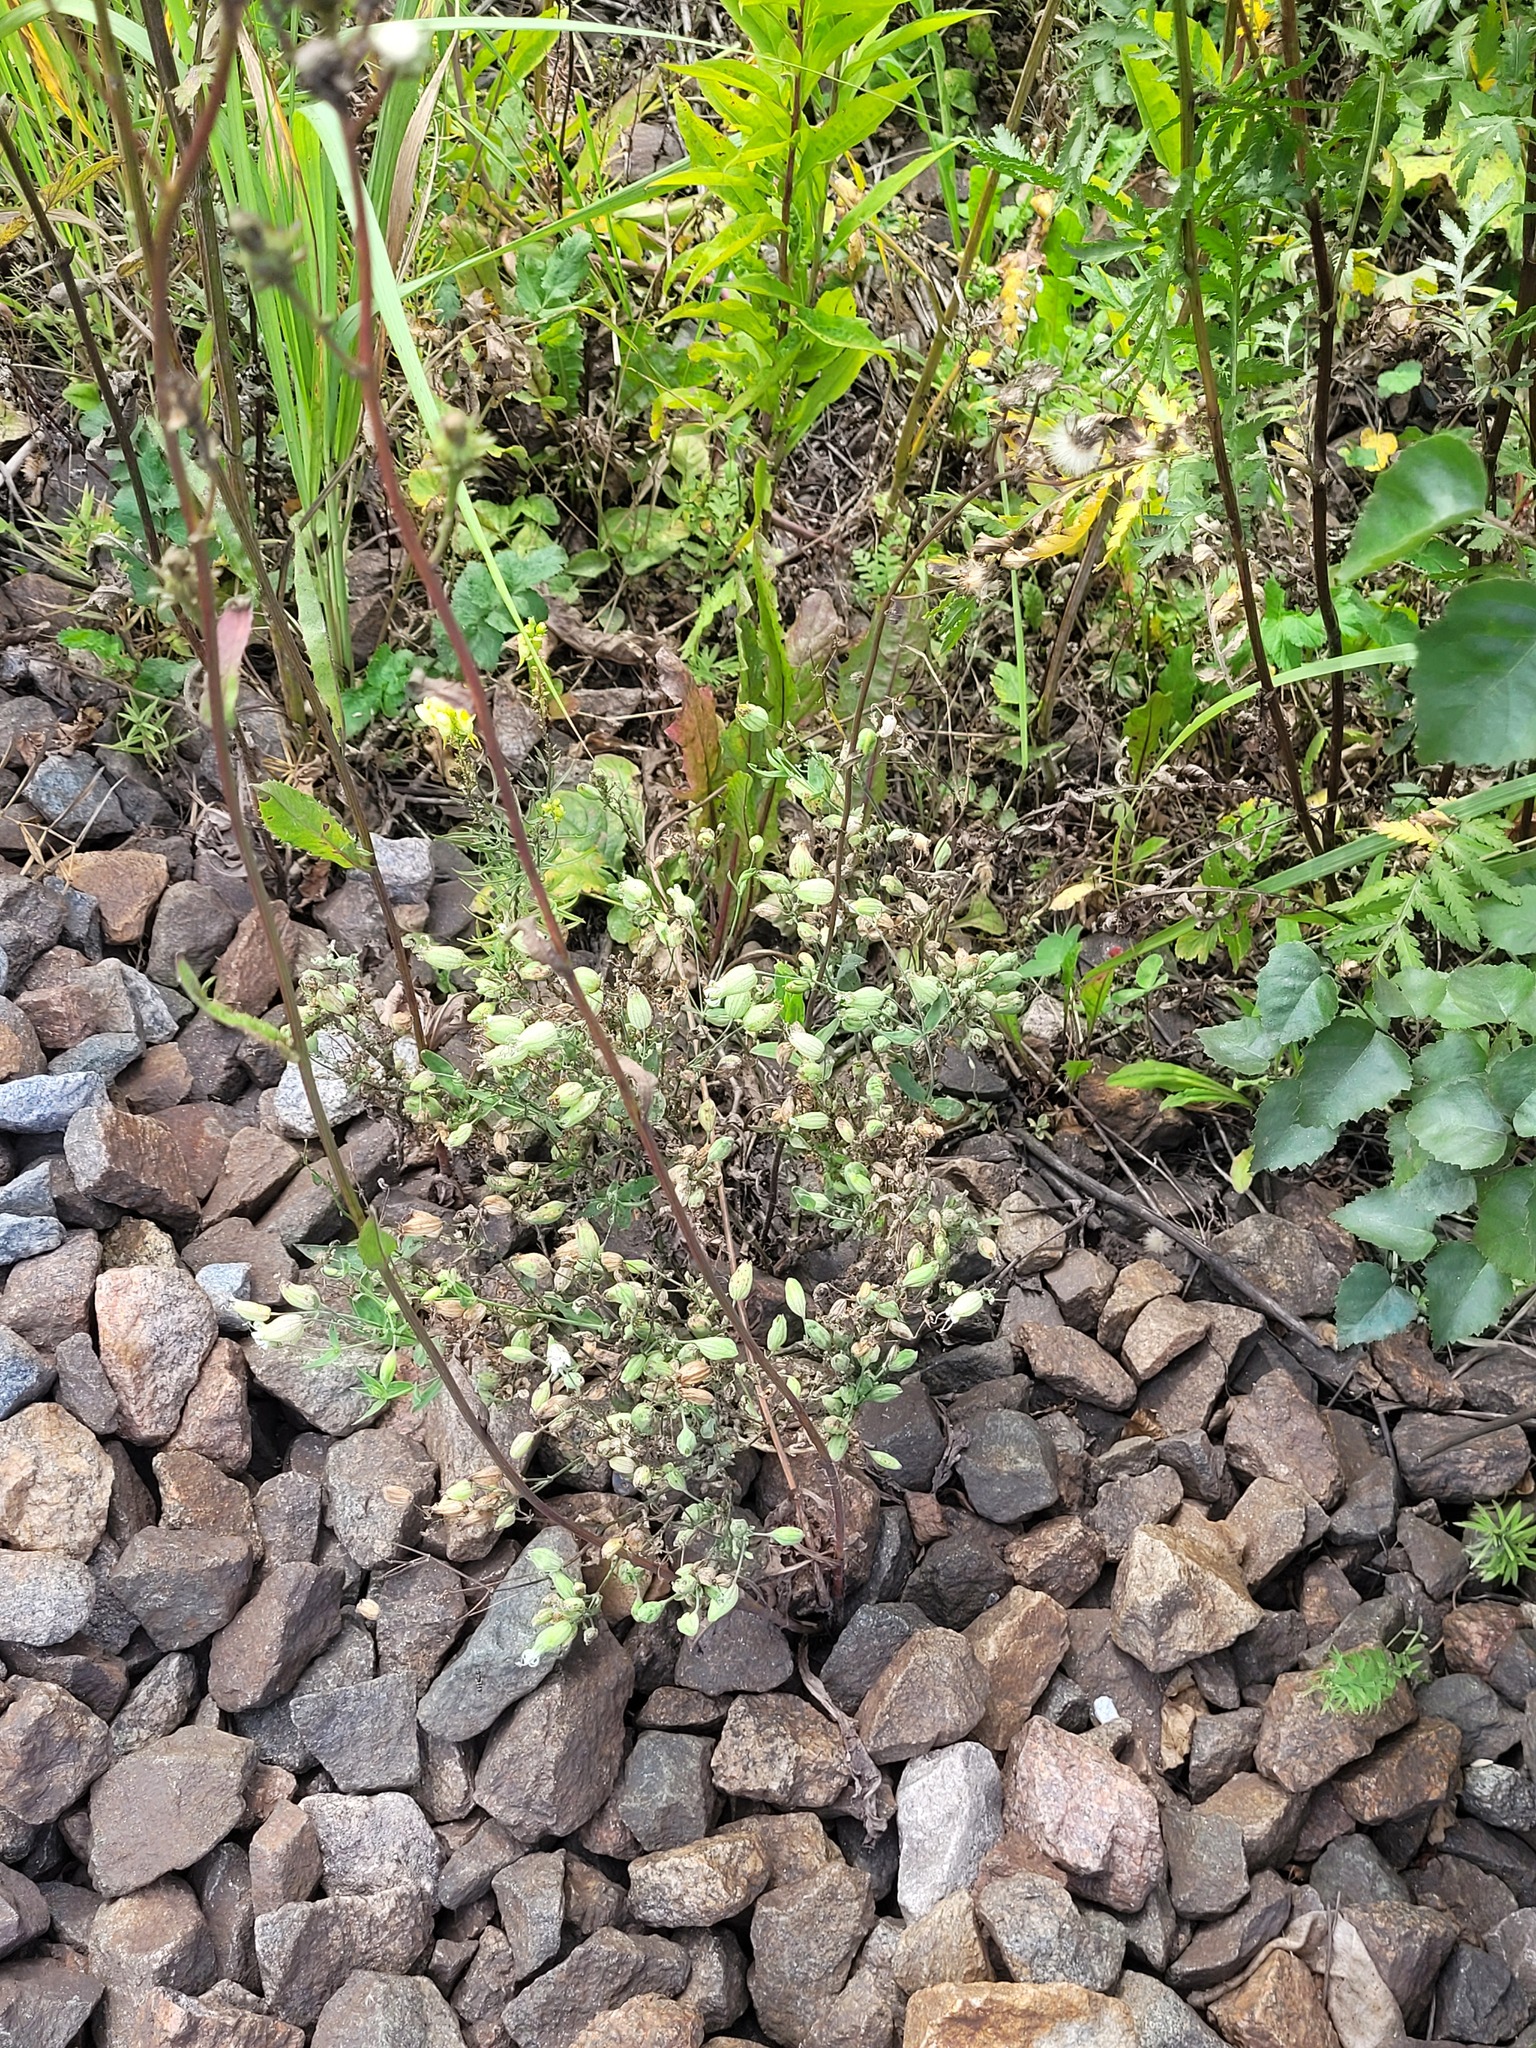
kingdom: Plantae
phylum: Tracheophyta
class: Magnoliopsida
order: Caryophyllales
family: Caryophyllaceae
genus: Silene
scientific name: Silene vulgaris
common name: Bladder campion
